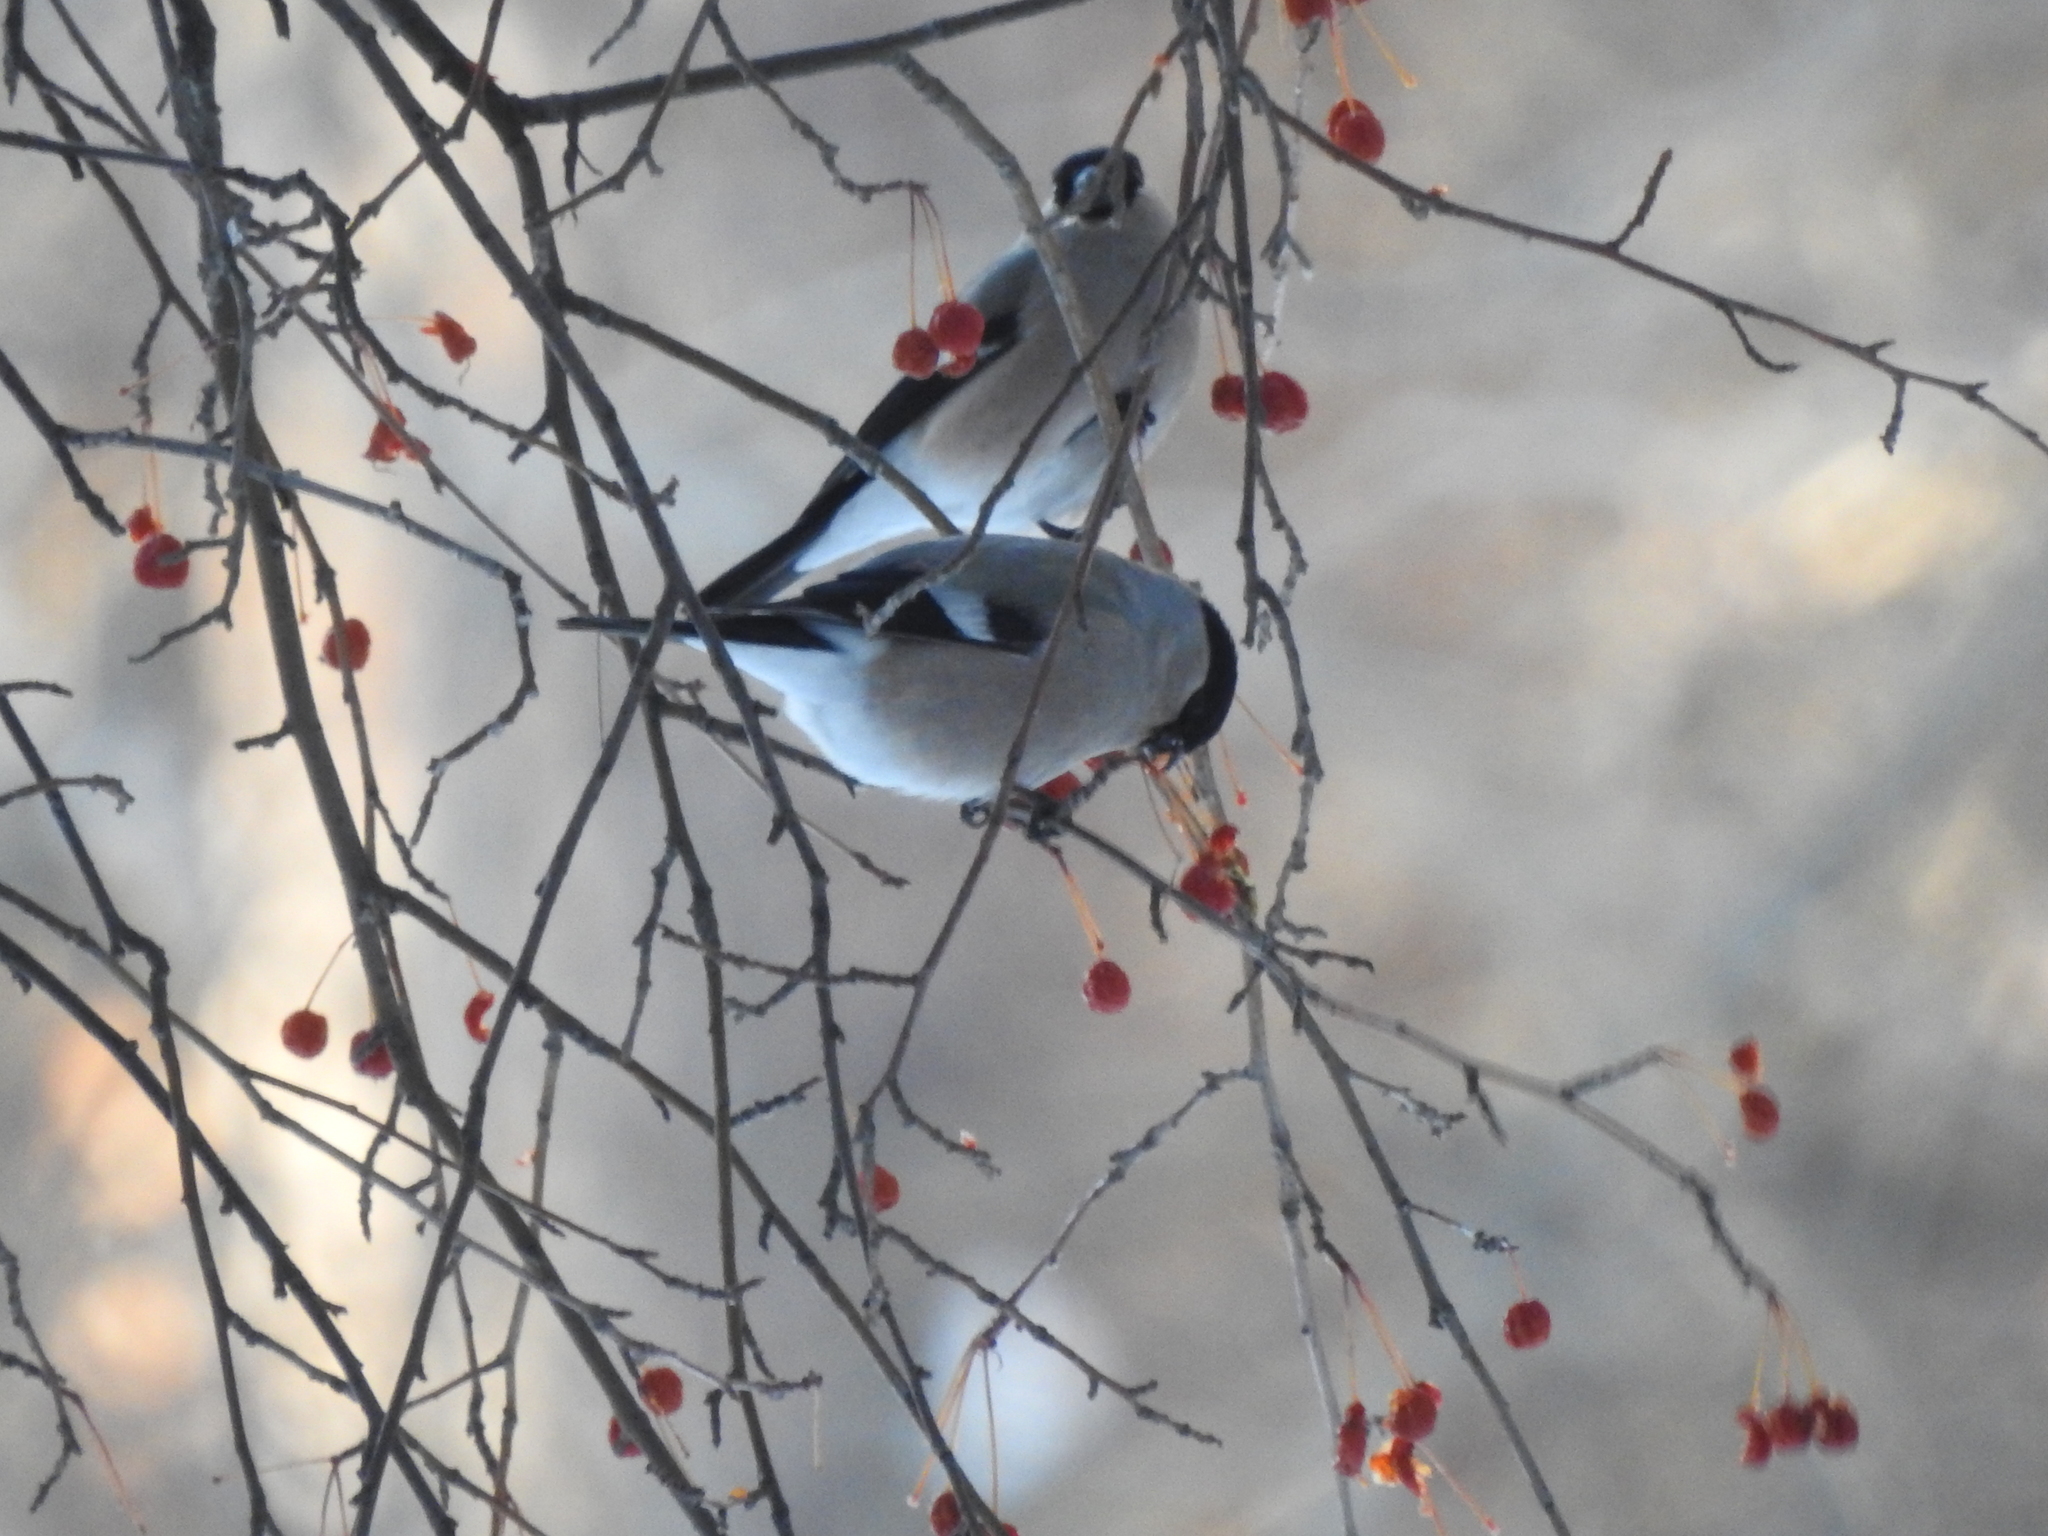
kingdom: Animalia
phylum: Chordata
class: Aves
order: Passeriformes
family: Fringillidae
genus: Pyrrhula
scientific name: Pyrrhula pyrrhula
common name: Eurasian bullfinch
